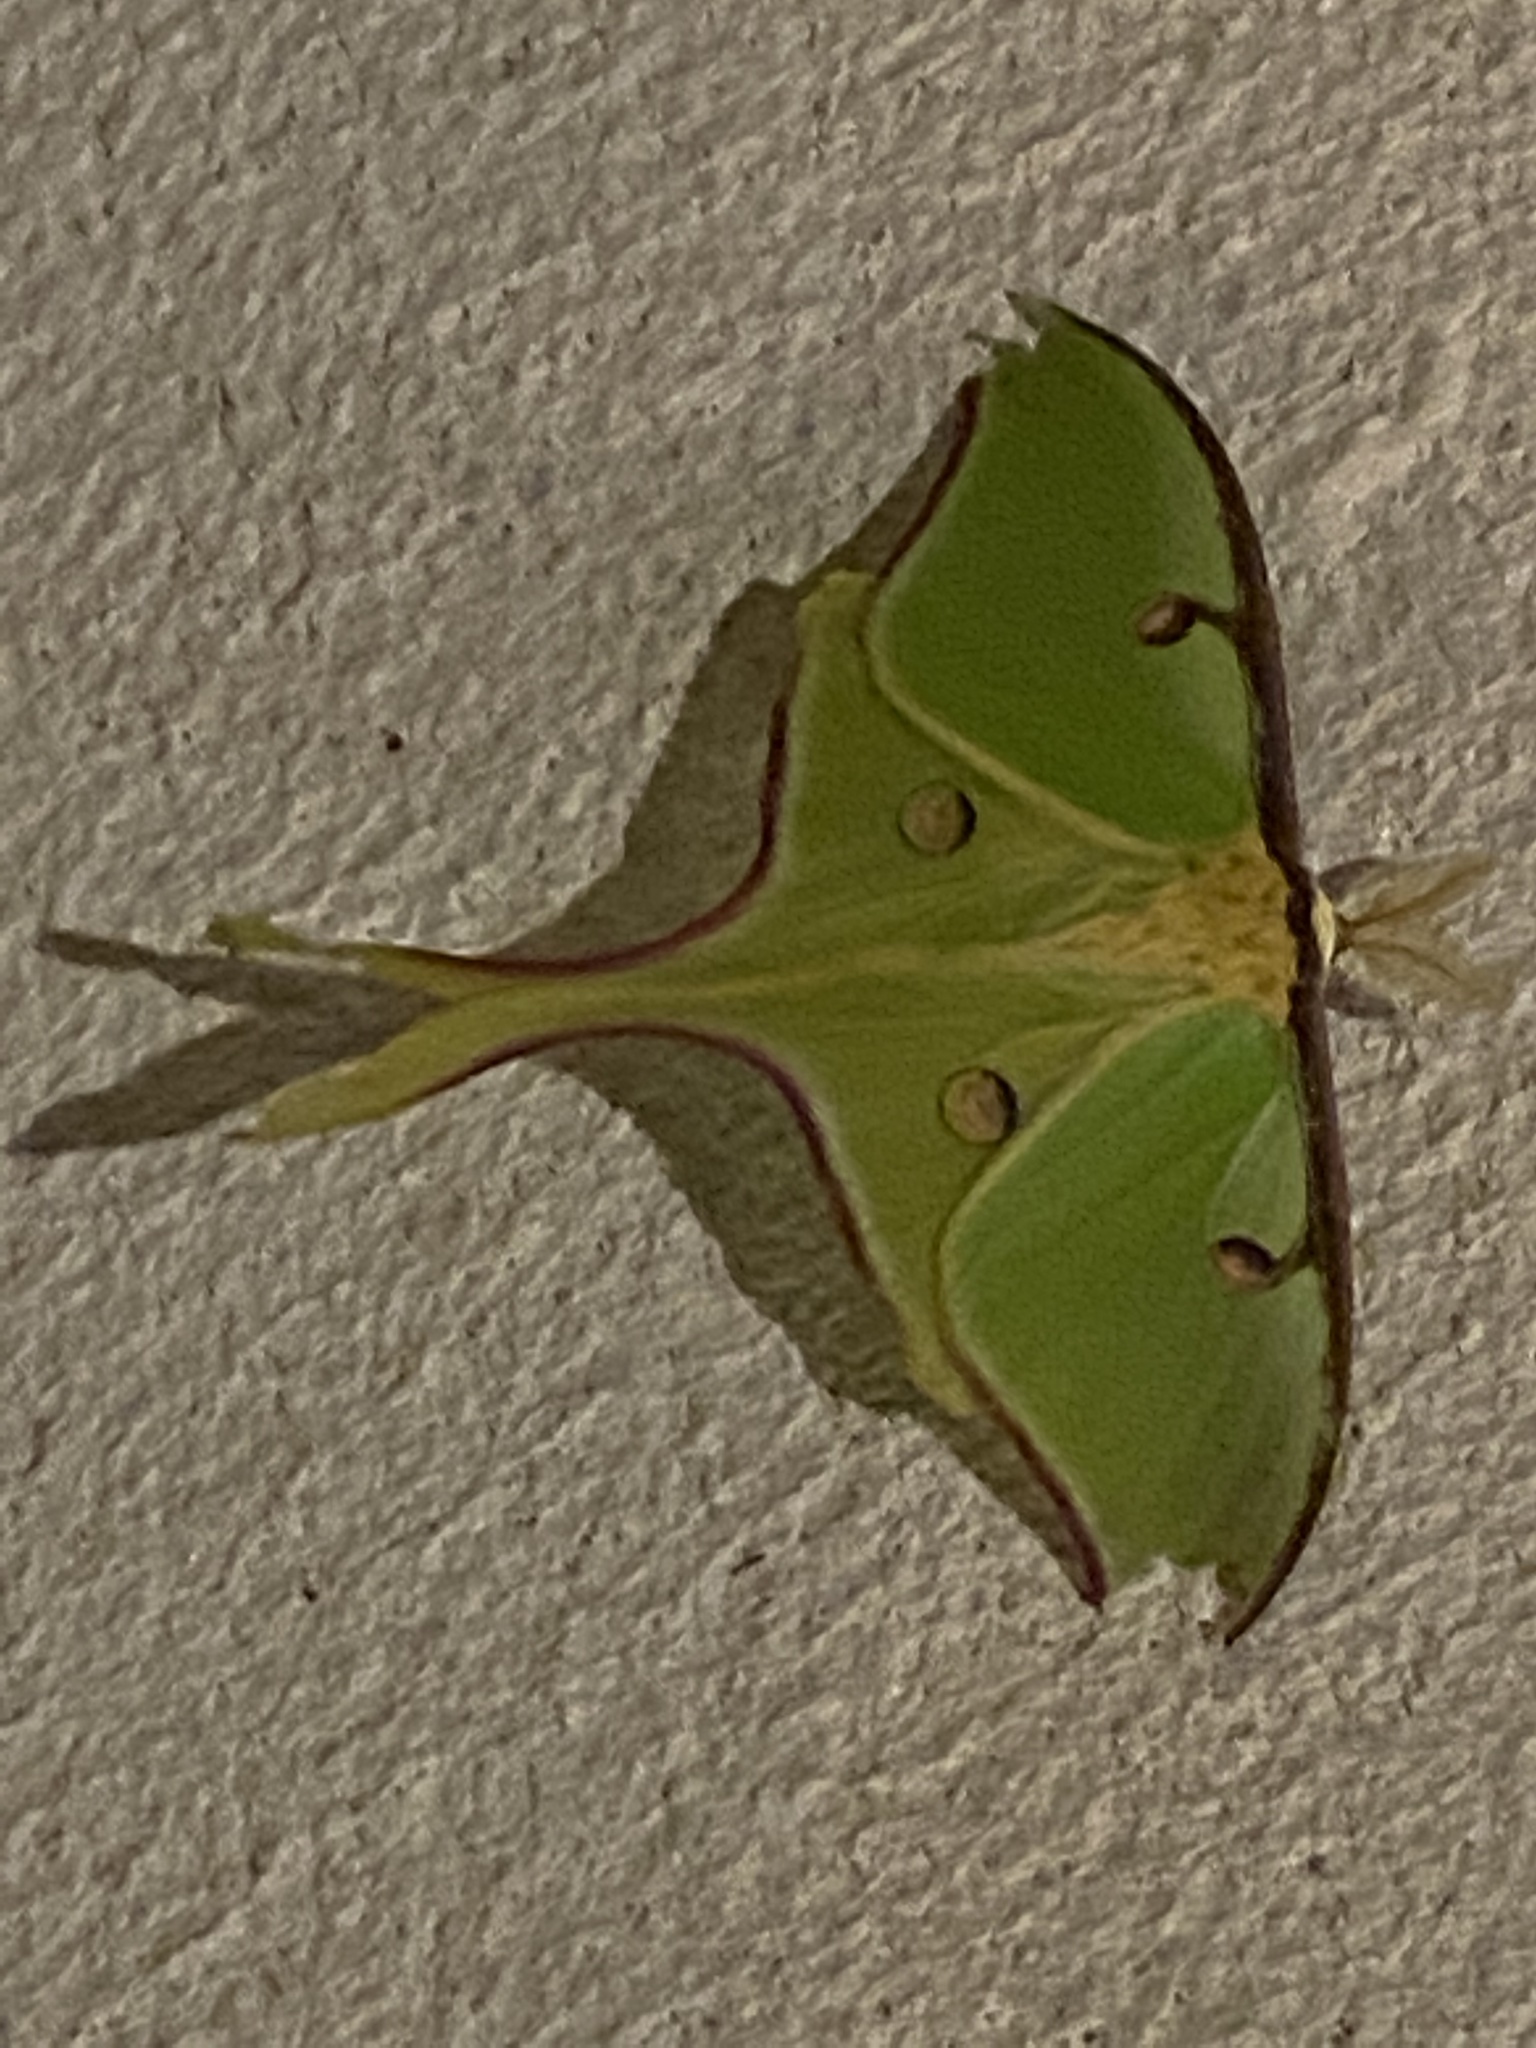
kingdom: Animalia
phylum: Arthropoda
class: Insecta
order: Lepidoptera
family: Saturniidae
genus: Actias
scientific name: Actias luna
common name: Luna moth
